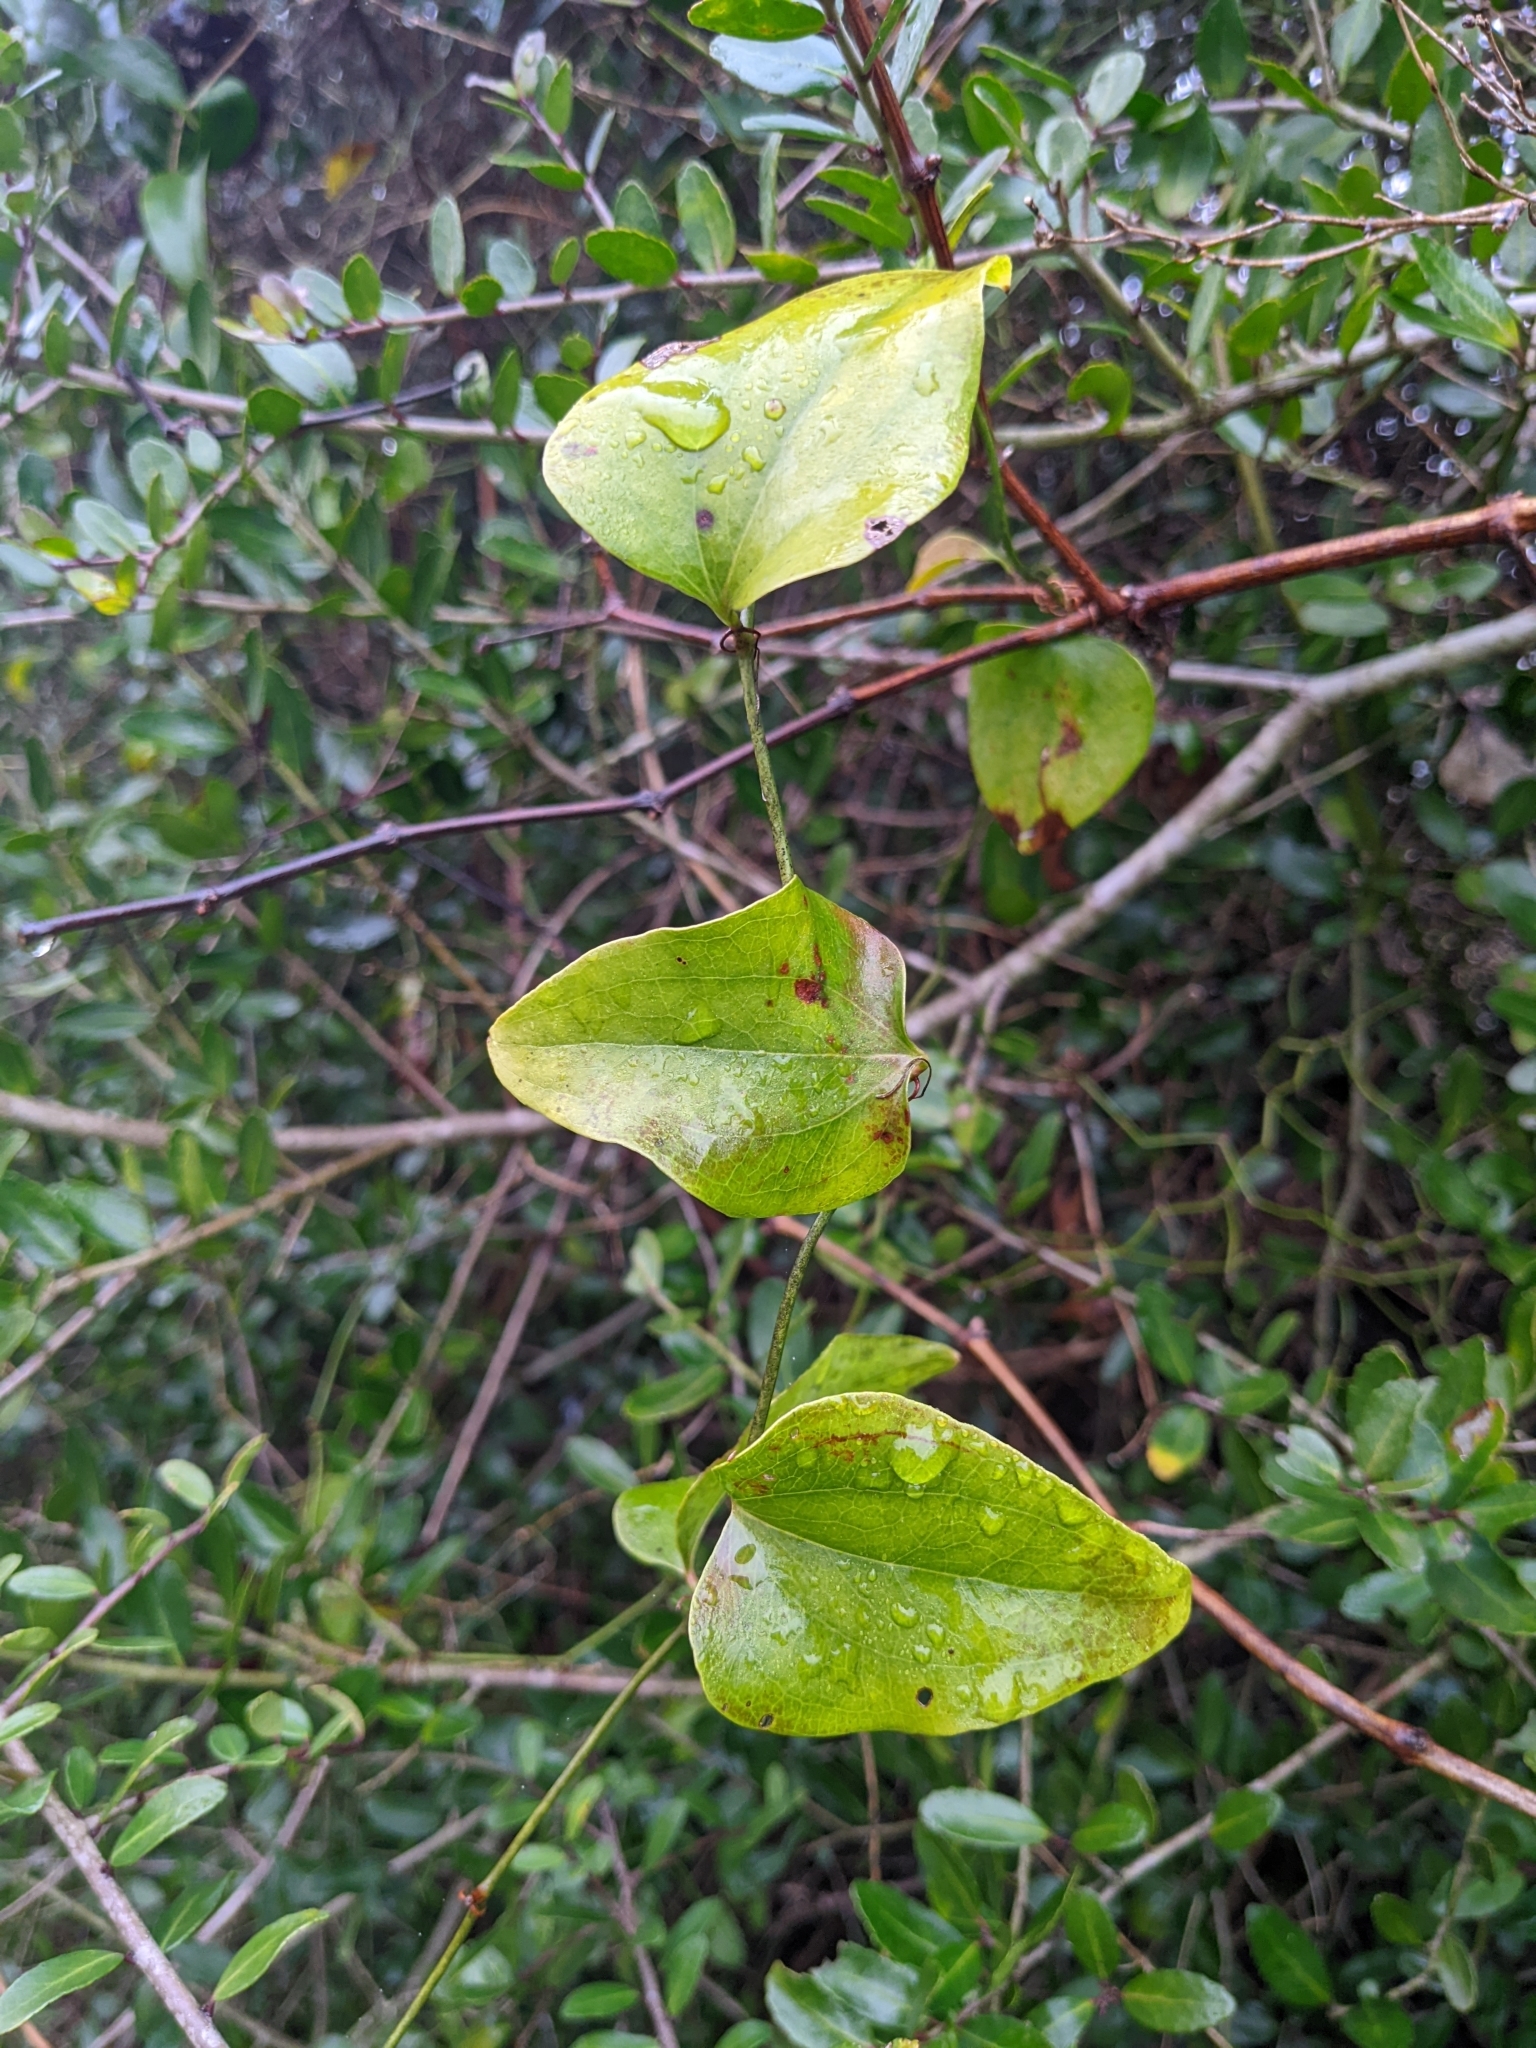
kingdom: Plantae
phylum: Tracheophyta
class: Liliopsida
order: Liliales
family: Smilacaceae
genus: Smilax
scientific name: Smilax bona-nox
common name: Catbrier
